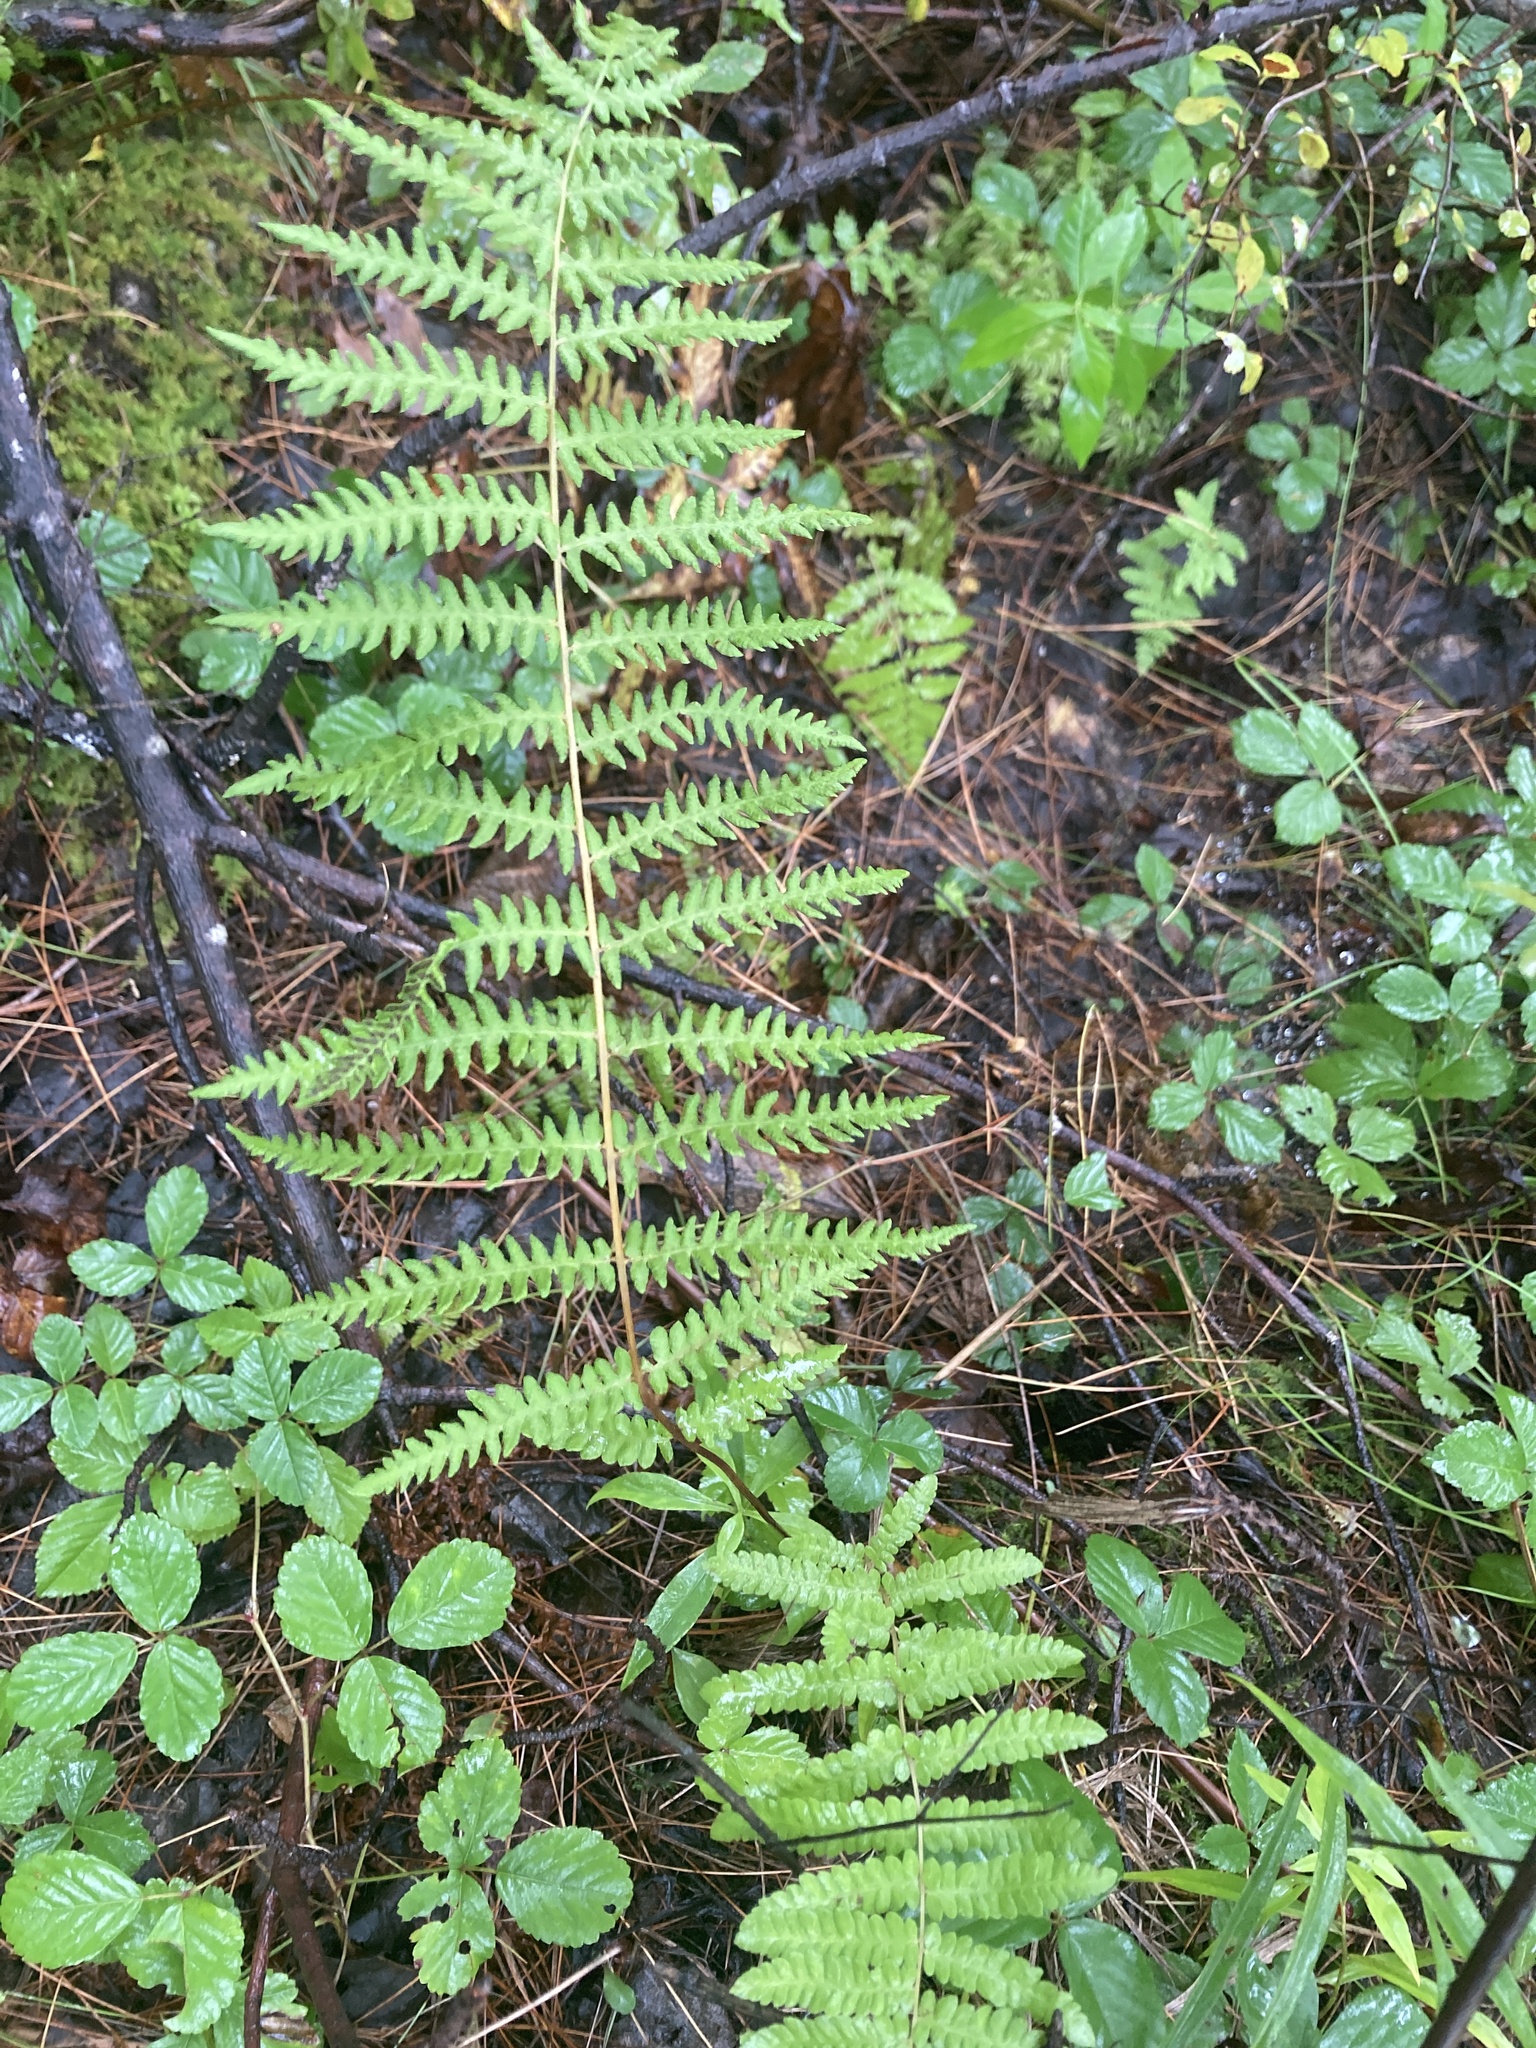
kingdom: Plantae
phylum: Tracheophyta
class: Polypodiopsida
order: Polypodiales
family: Thelypteridaceae
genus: Thelypteris
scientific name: Thelypteris palustris
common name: Marsh fern
